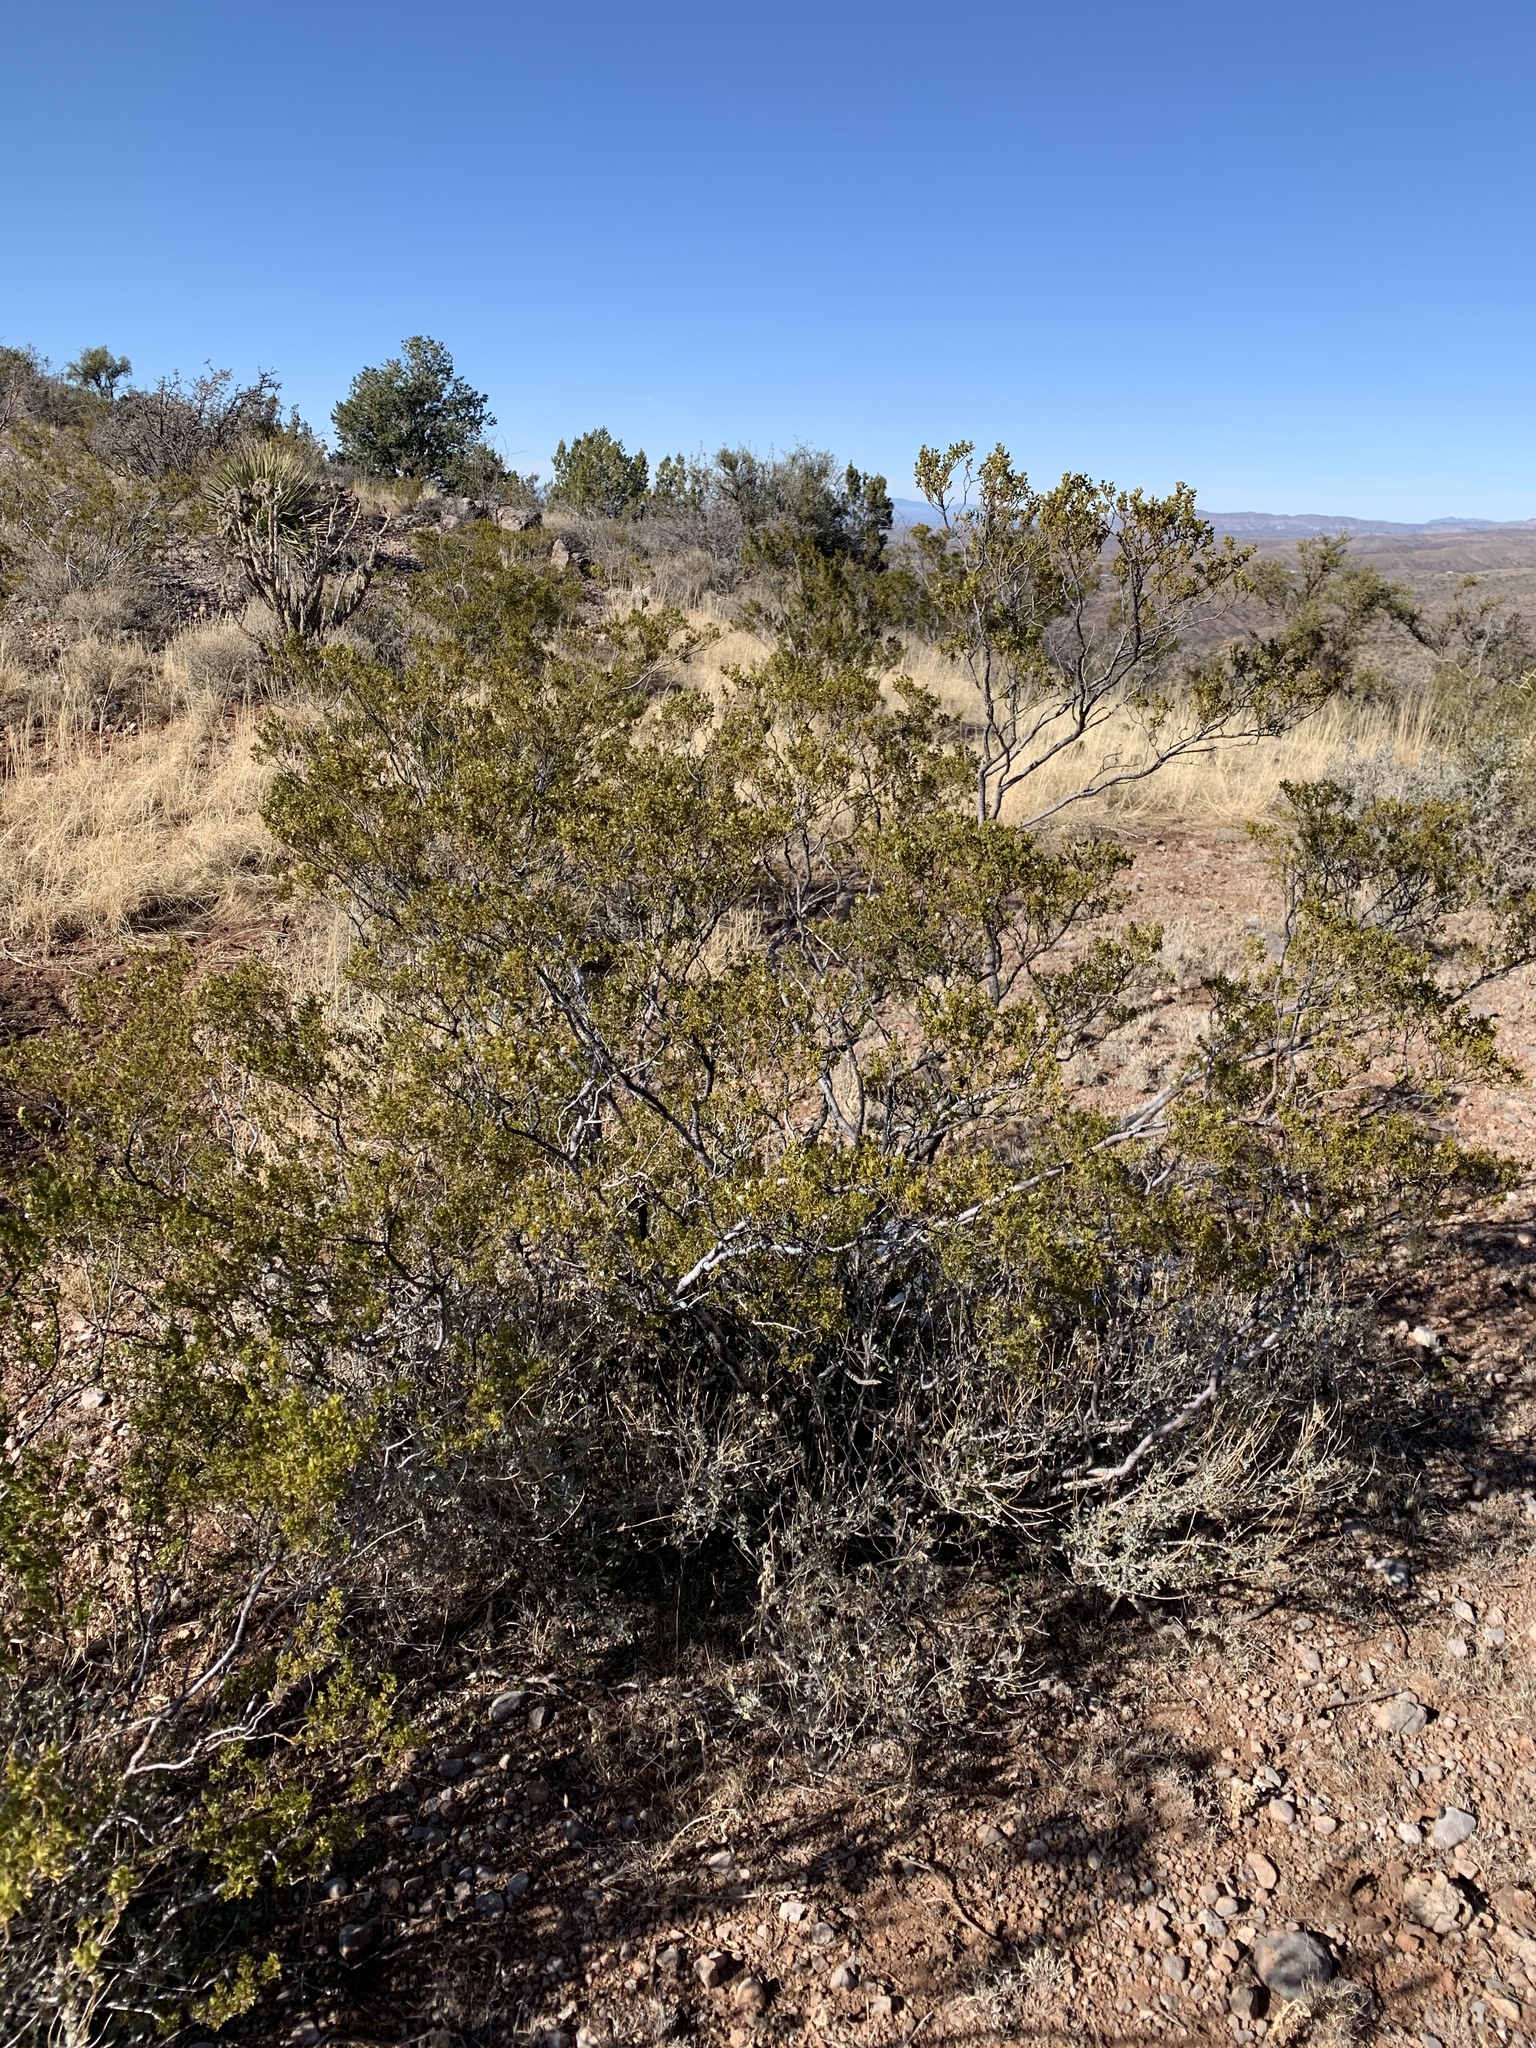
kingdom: Plantae
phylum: Tracheophyta
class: Magnoliopsida
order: Zygophyllales
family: Zygophyllaceae
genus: Larrea
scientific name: Larrea tridentata
